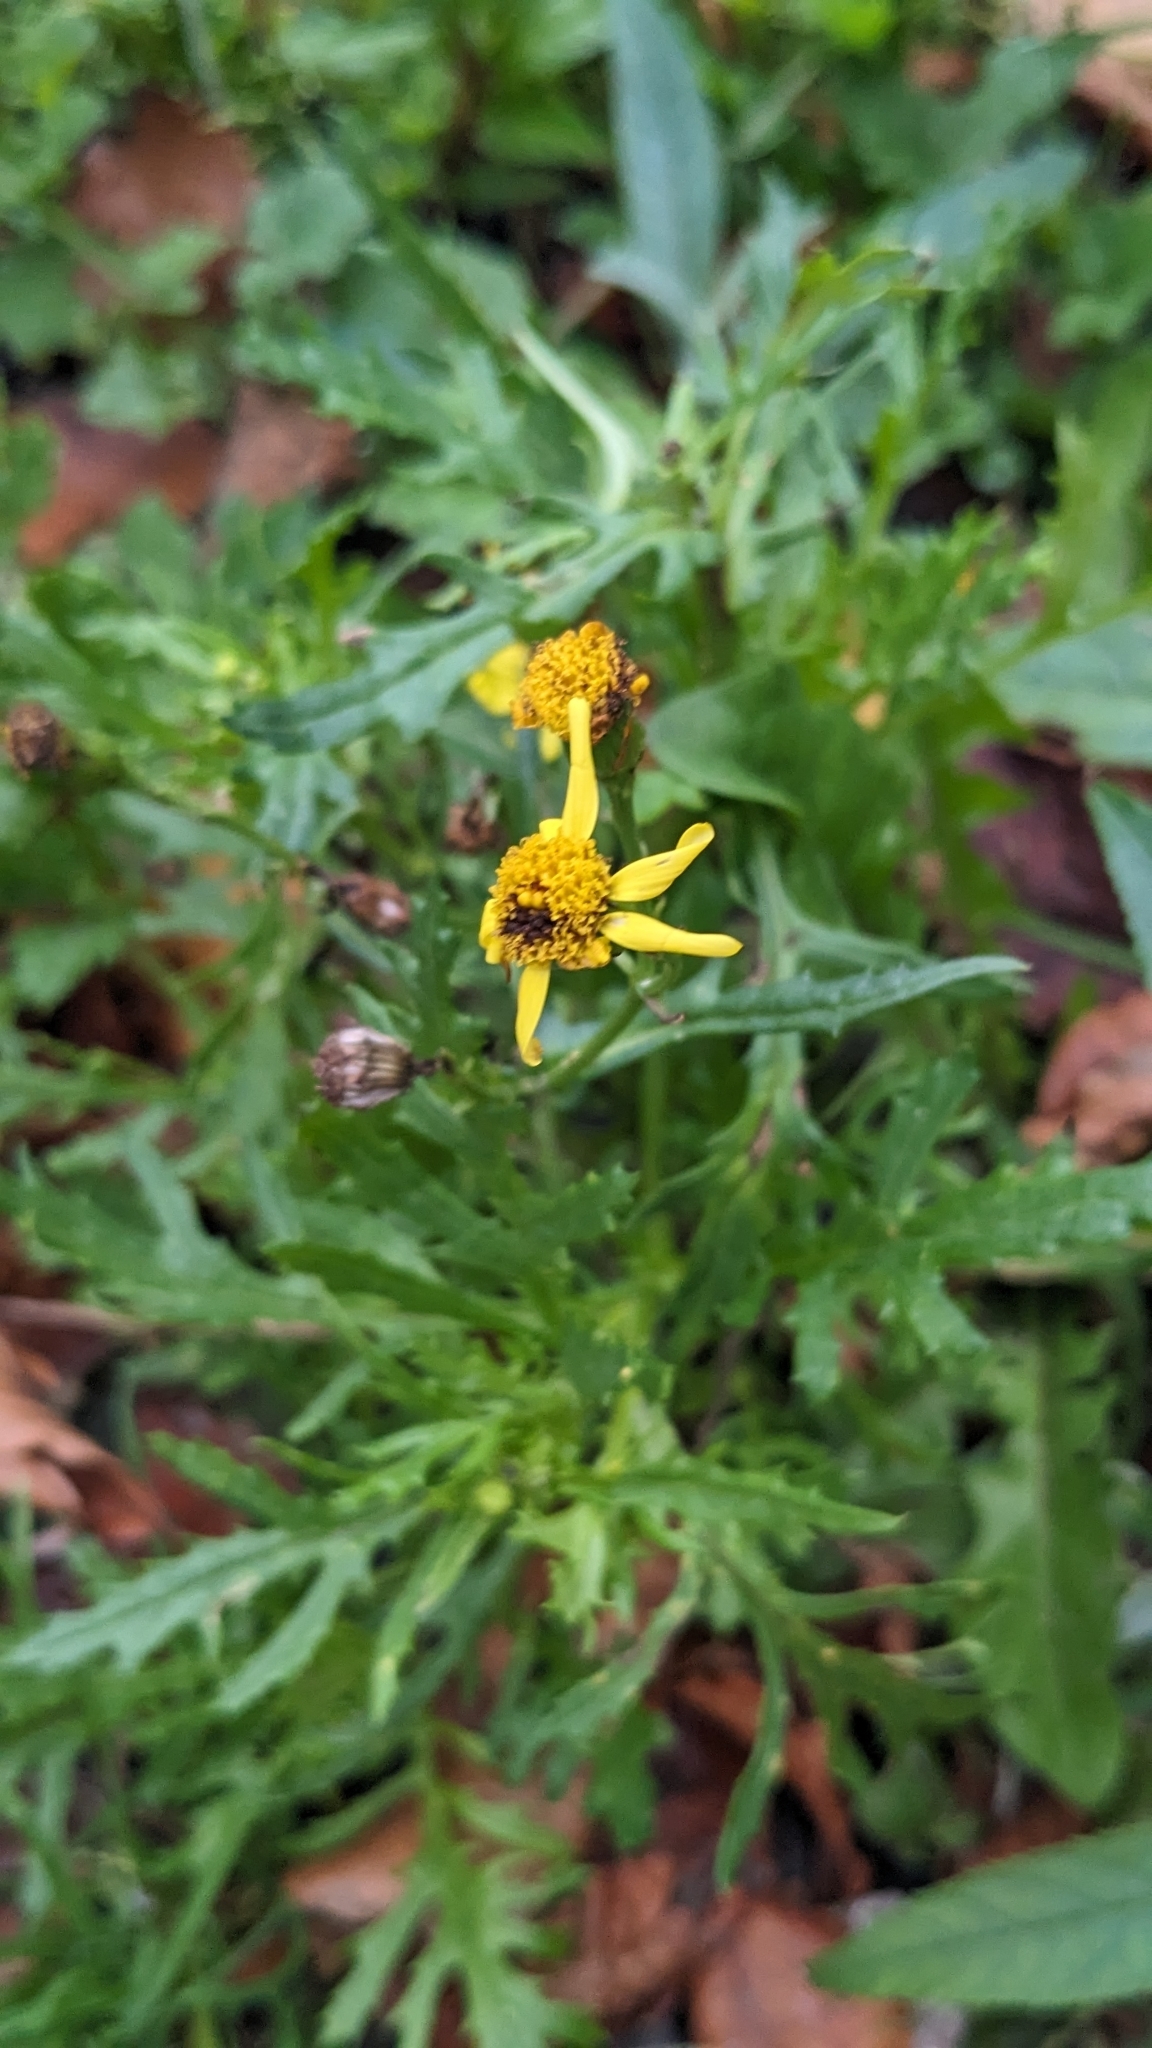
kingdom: Plantae
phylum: Tracheophyta
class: Magnoliopsida
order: Asterales
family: Asteraceae
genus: Senecio
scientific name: Senecio squalidus
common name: Oxford ragwort
